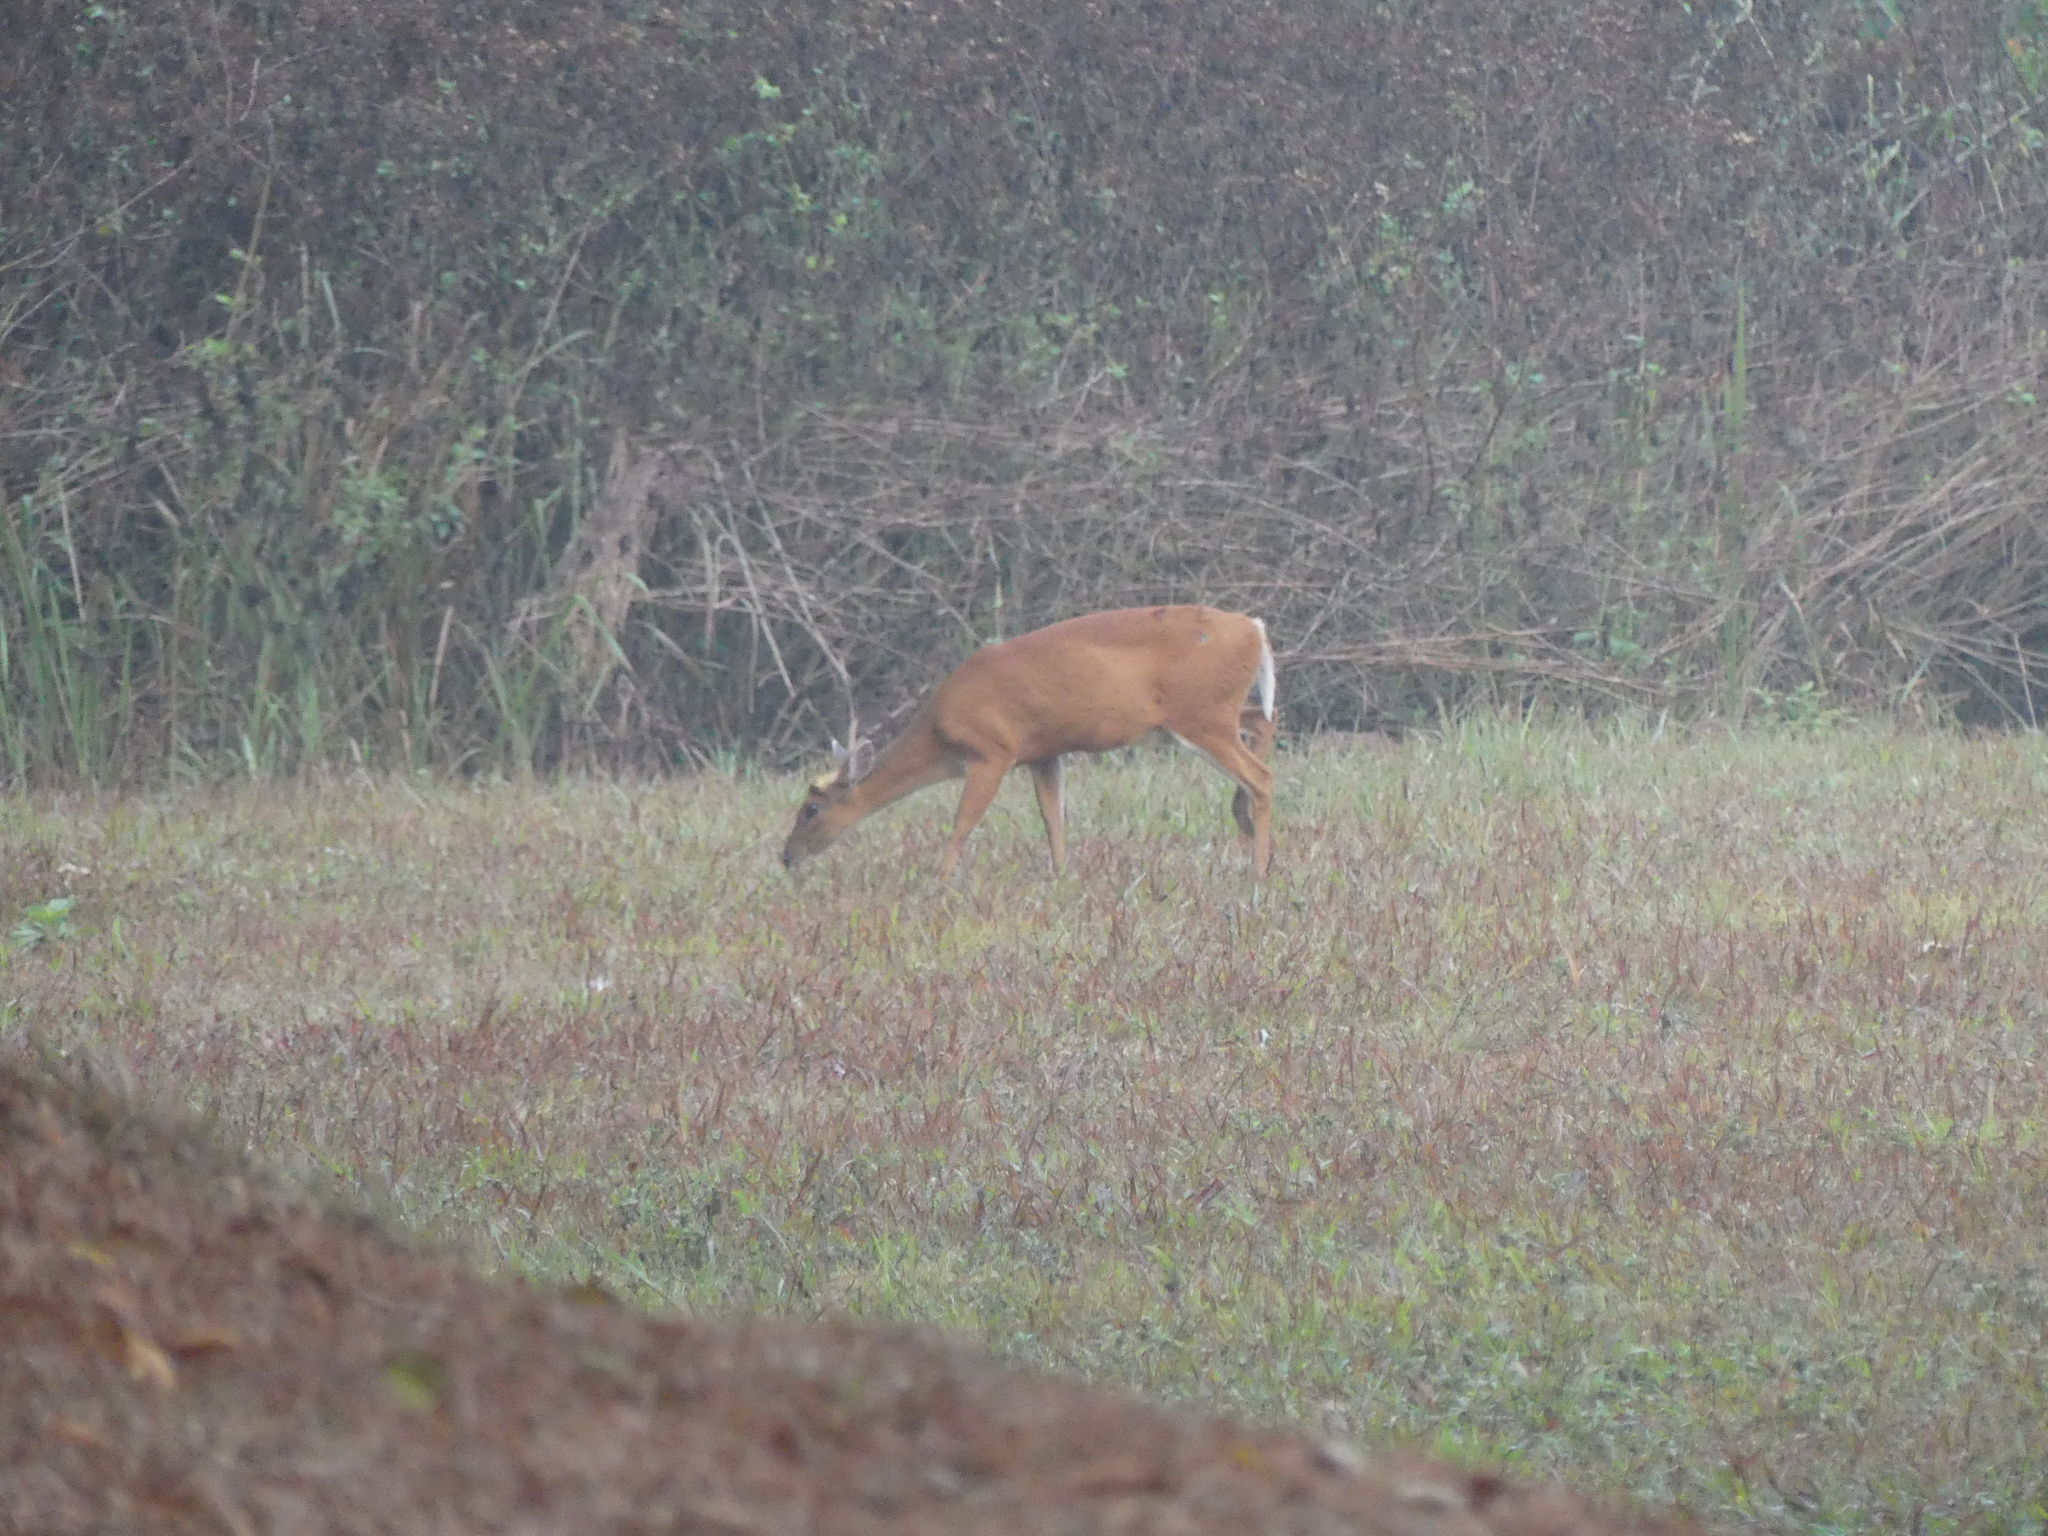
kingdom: Animalia
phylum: Chordata
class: Mammalia
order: Artiodactyla
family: Cervidae
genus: Muntiacus
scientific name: Muntiacus muntjak
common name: Indian muntjac
